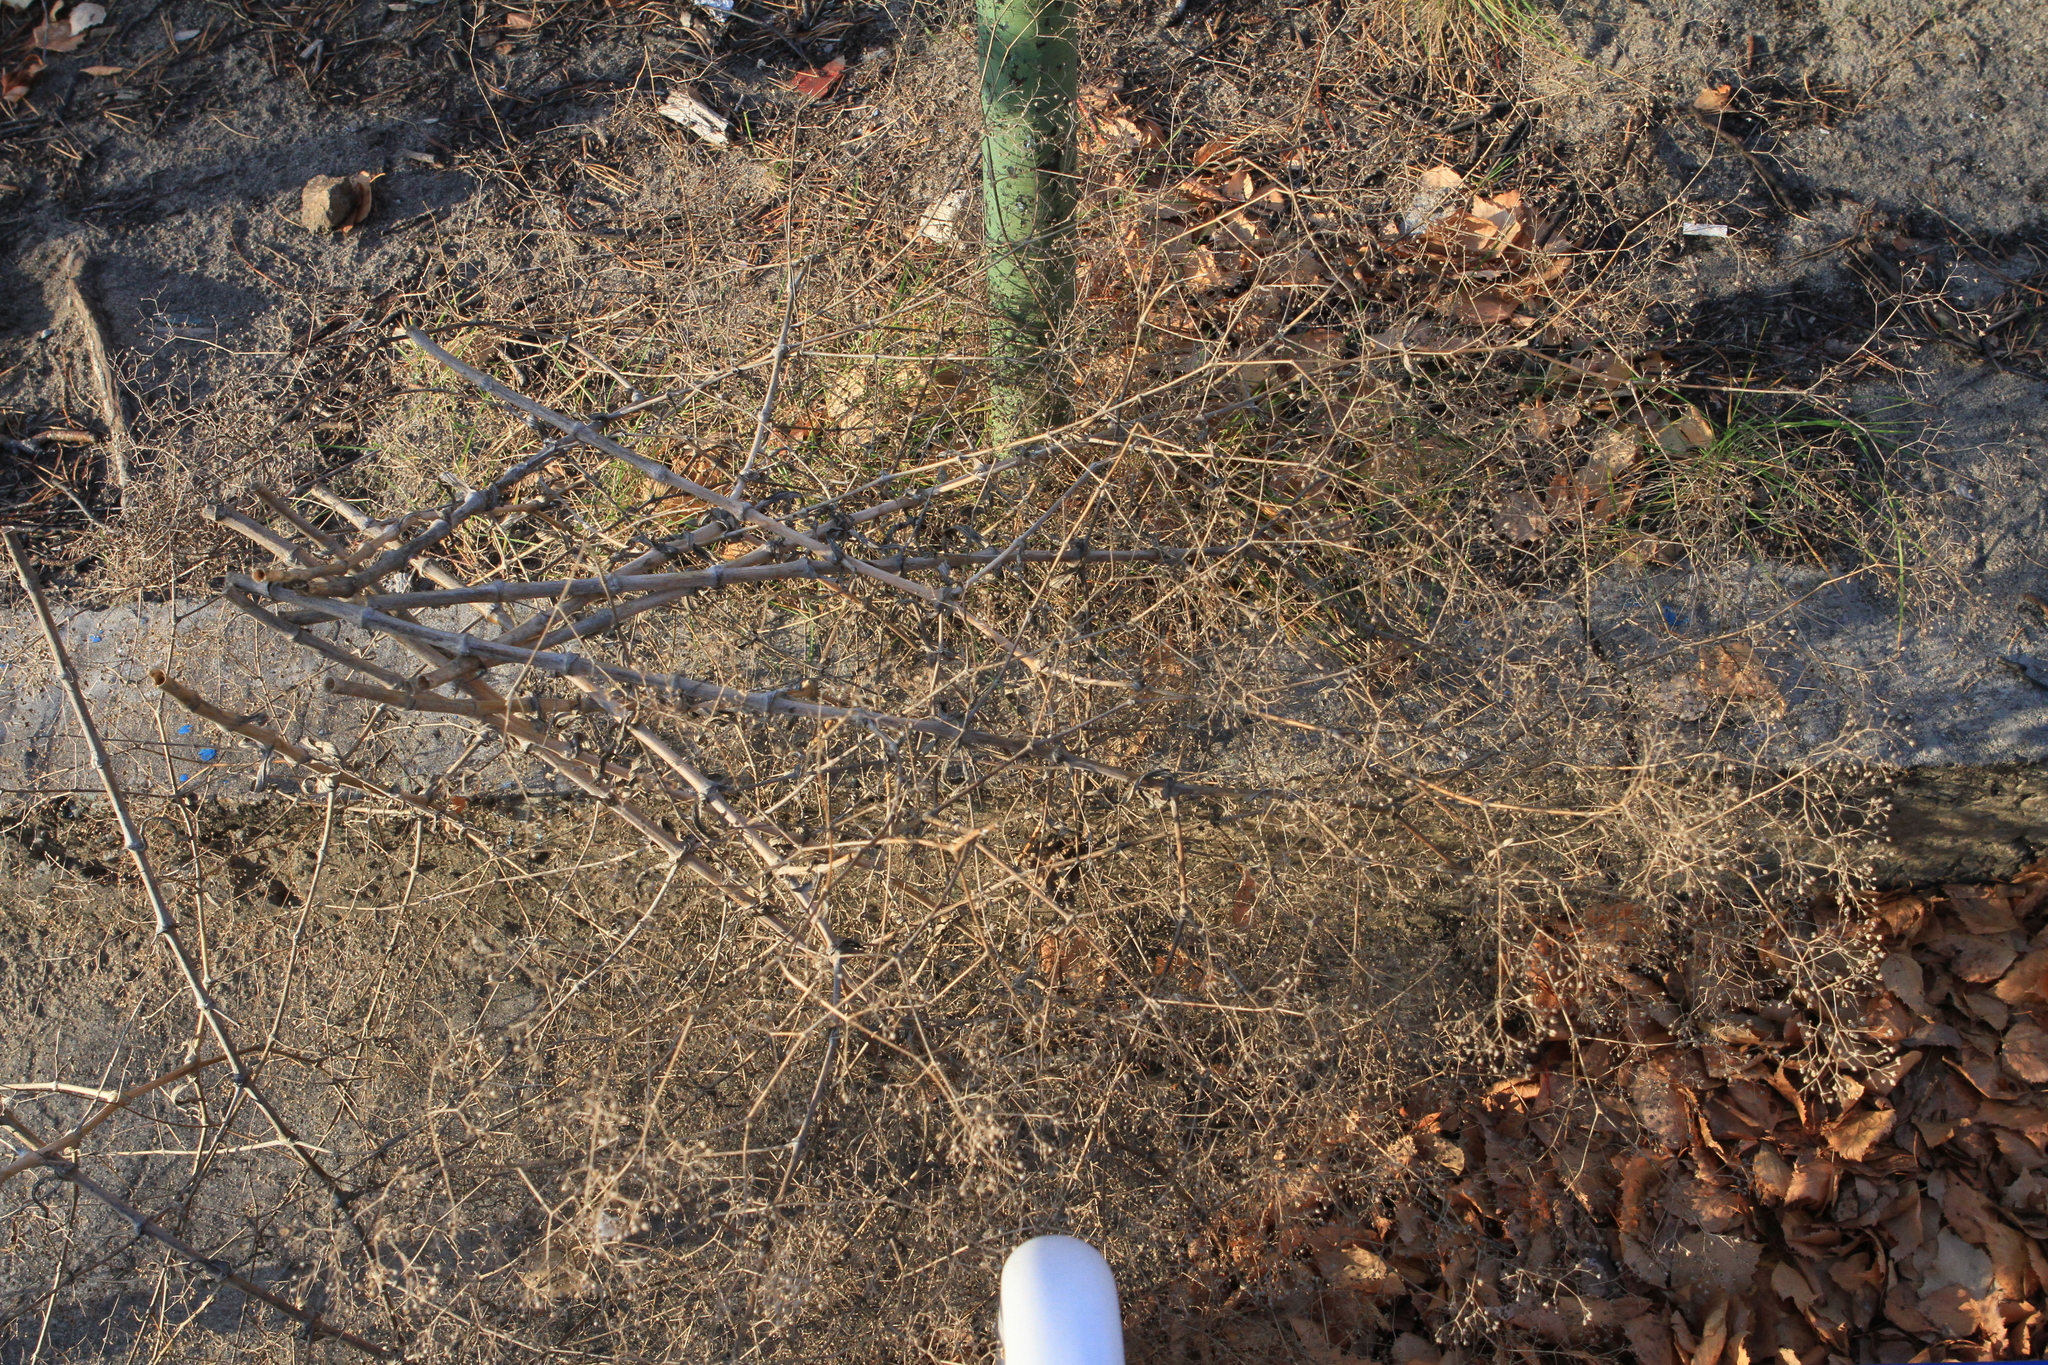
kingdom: Plantae
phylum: Tracheophyta
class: Magnoliopsida
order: Caryophyllales
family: Caryophyllaceae
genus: Gypsophila
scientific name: Gypsophila paniculata
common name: Baby's-breath
